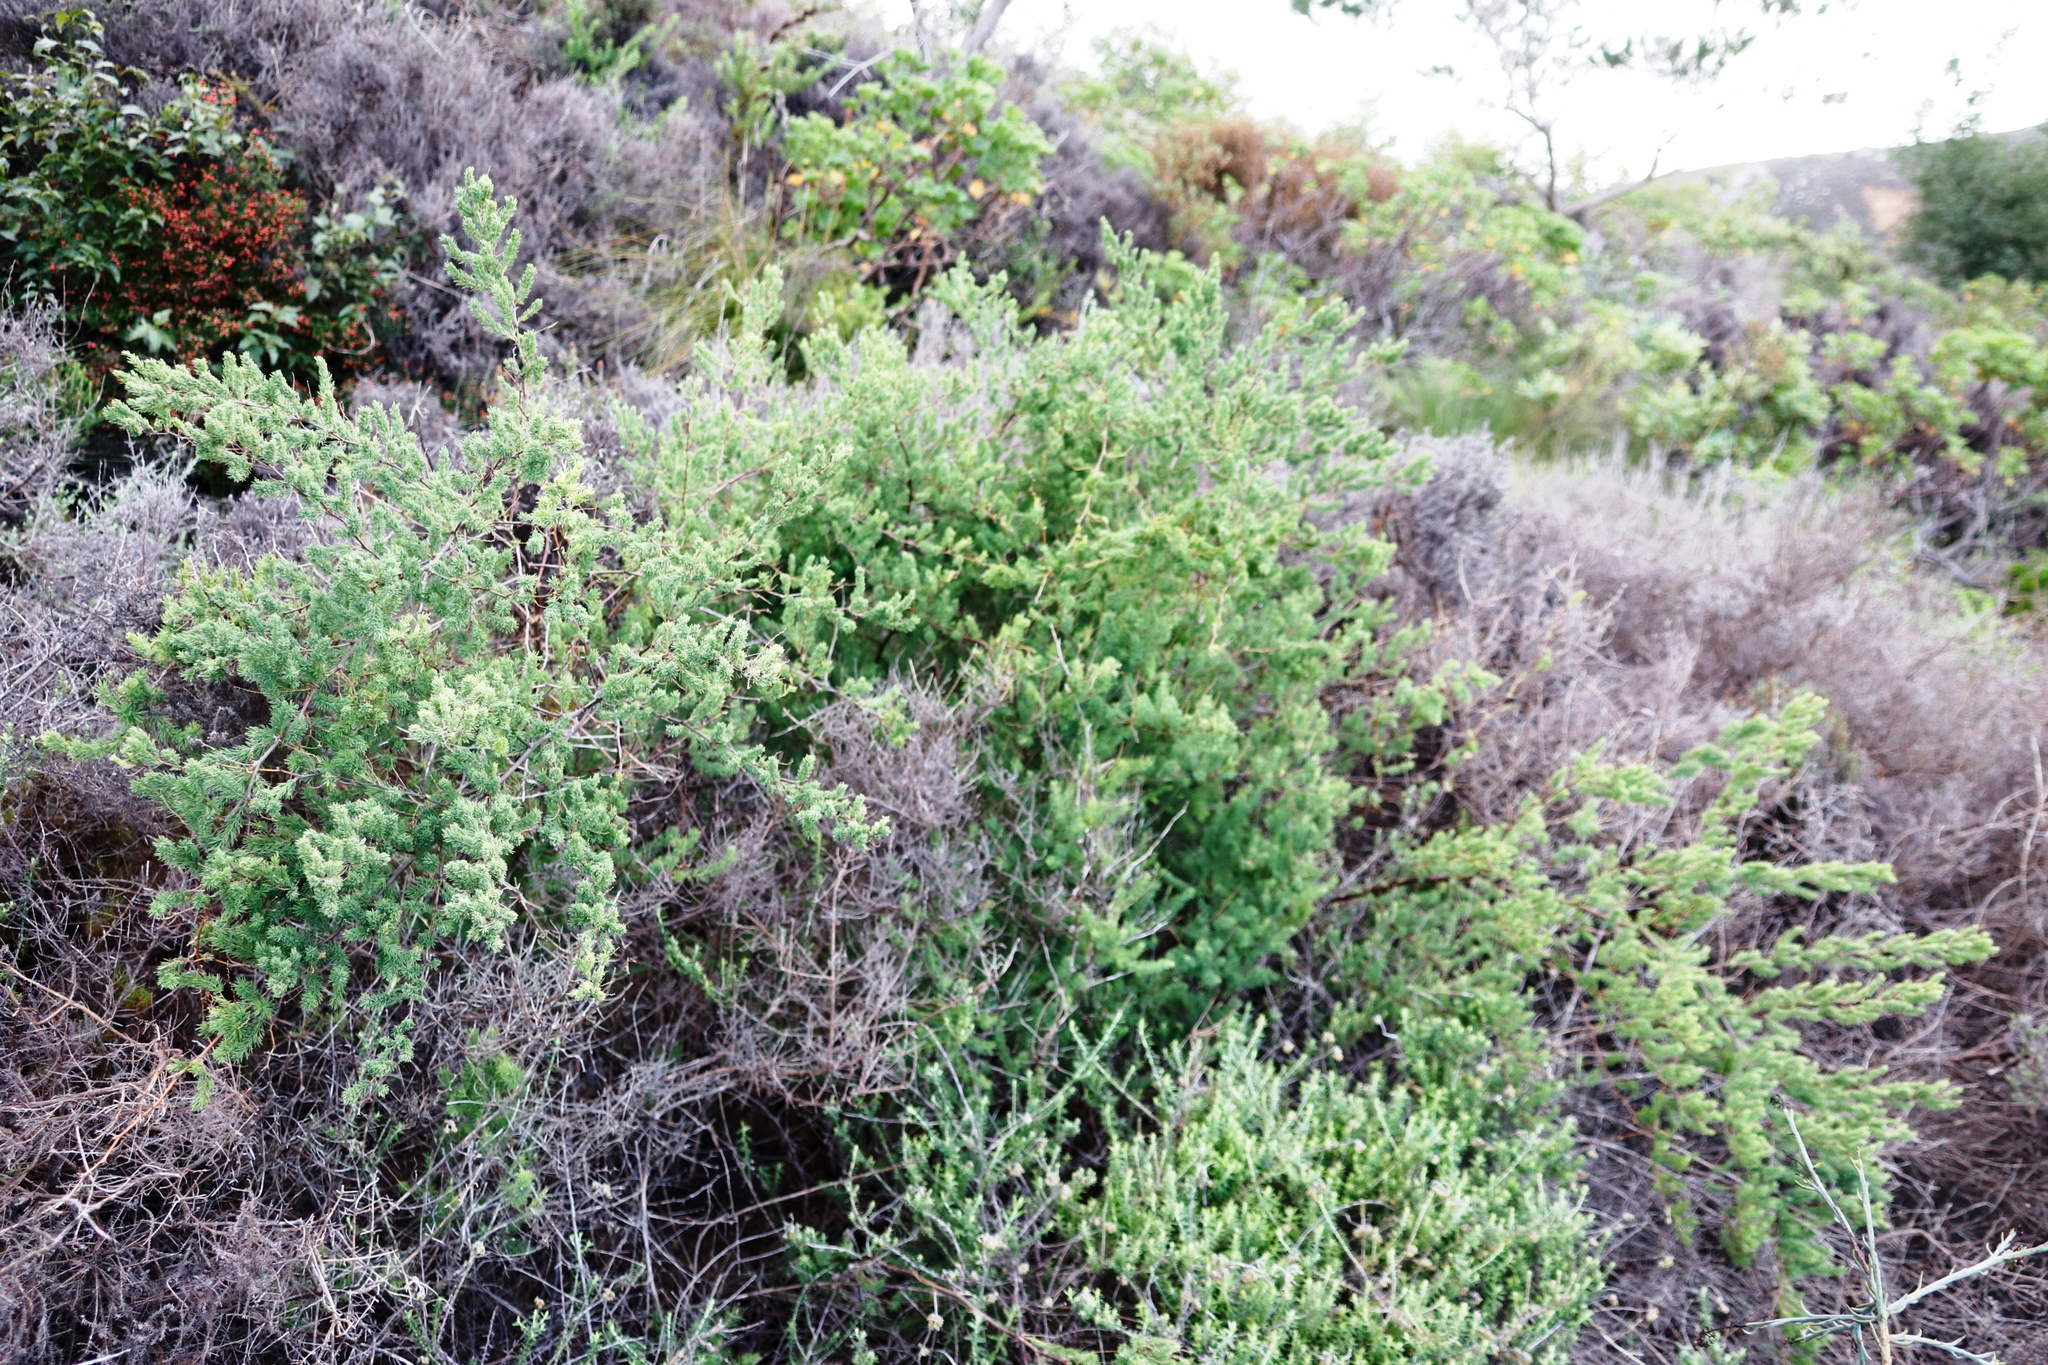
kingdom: Plantae
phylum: Tracheophyta
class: Liliopsida
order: Asparagales
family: Asparagaceae
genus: Asparagus
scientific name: Asparagus rubicundus
